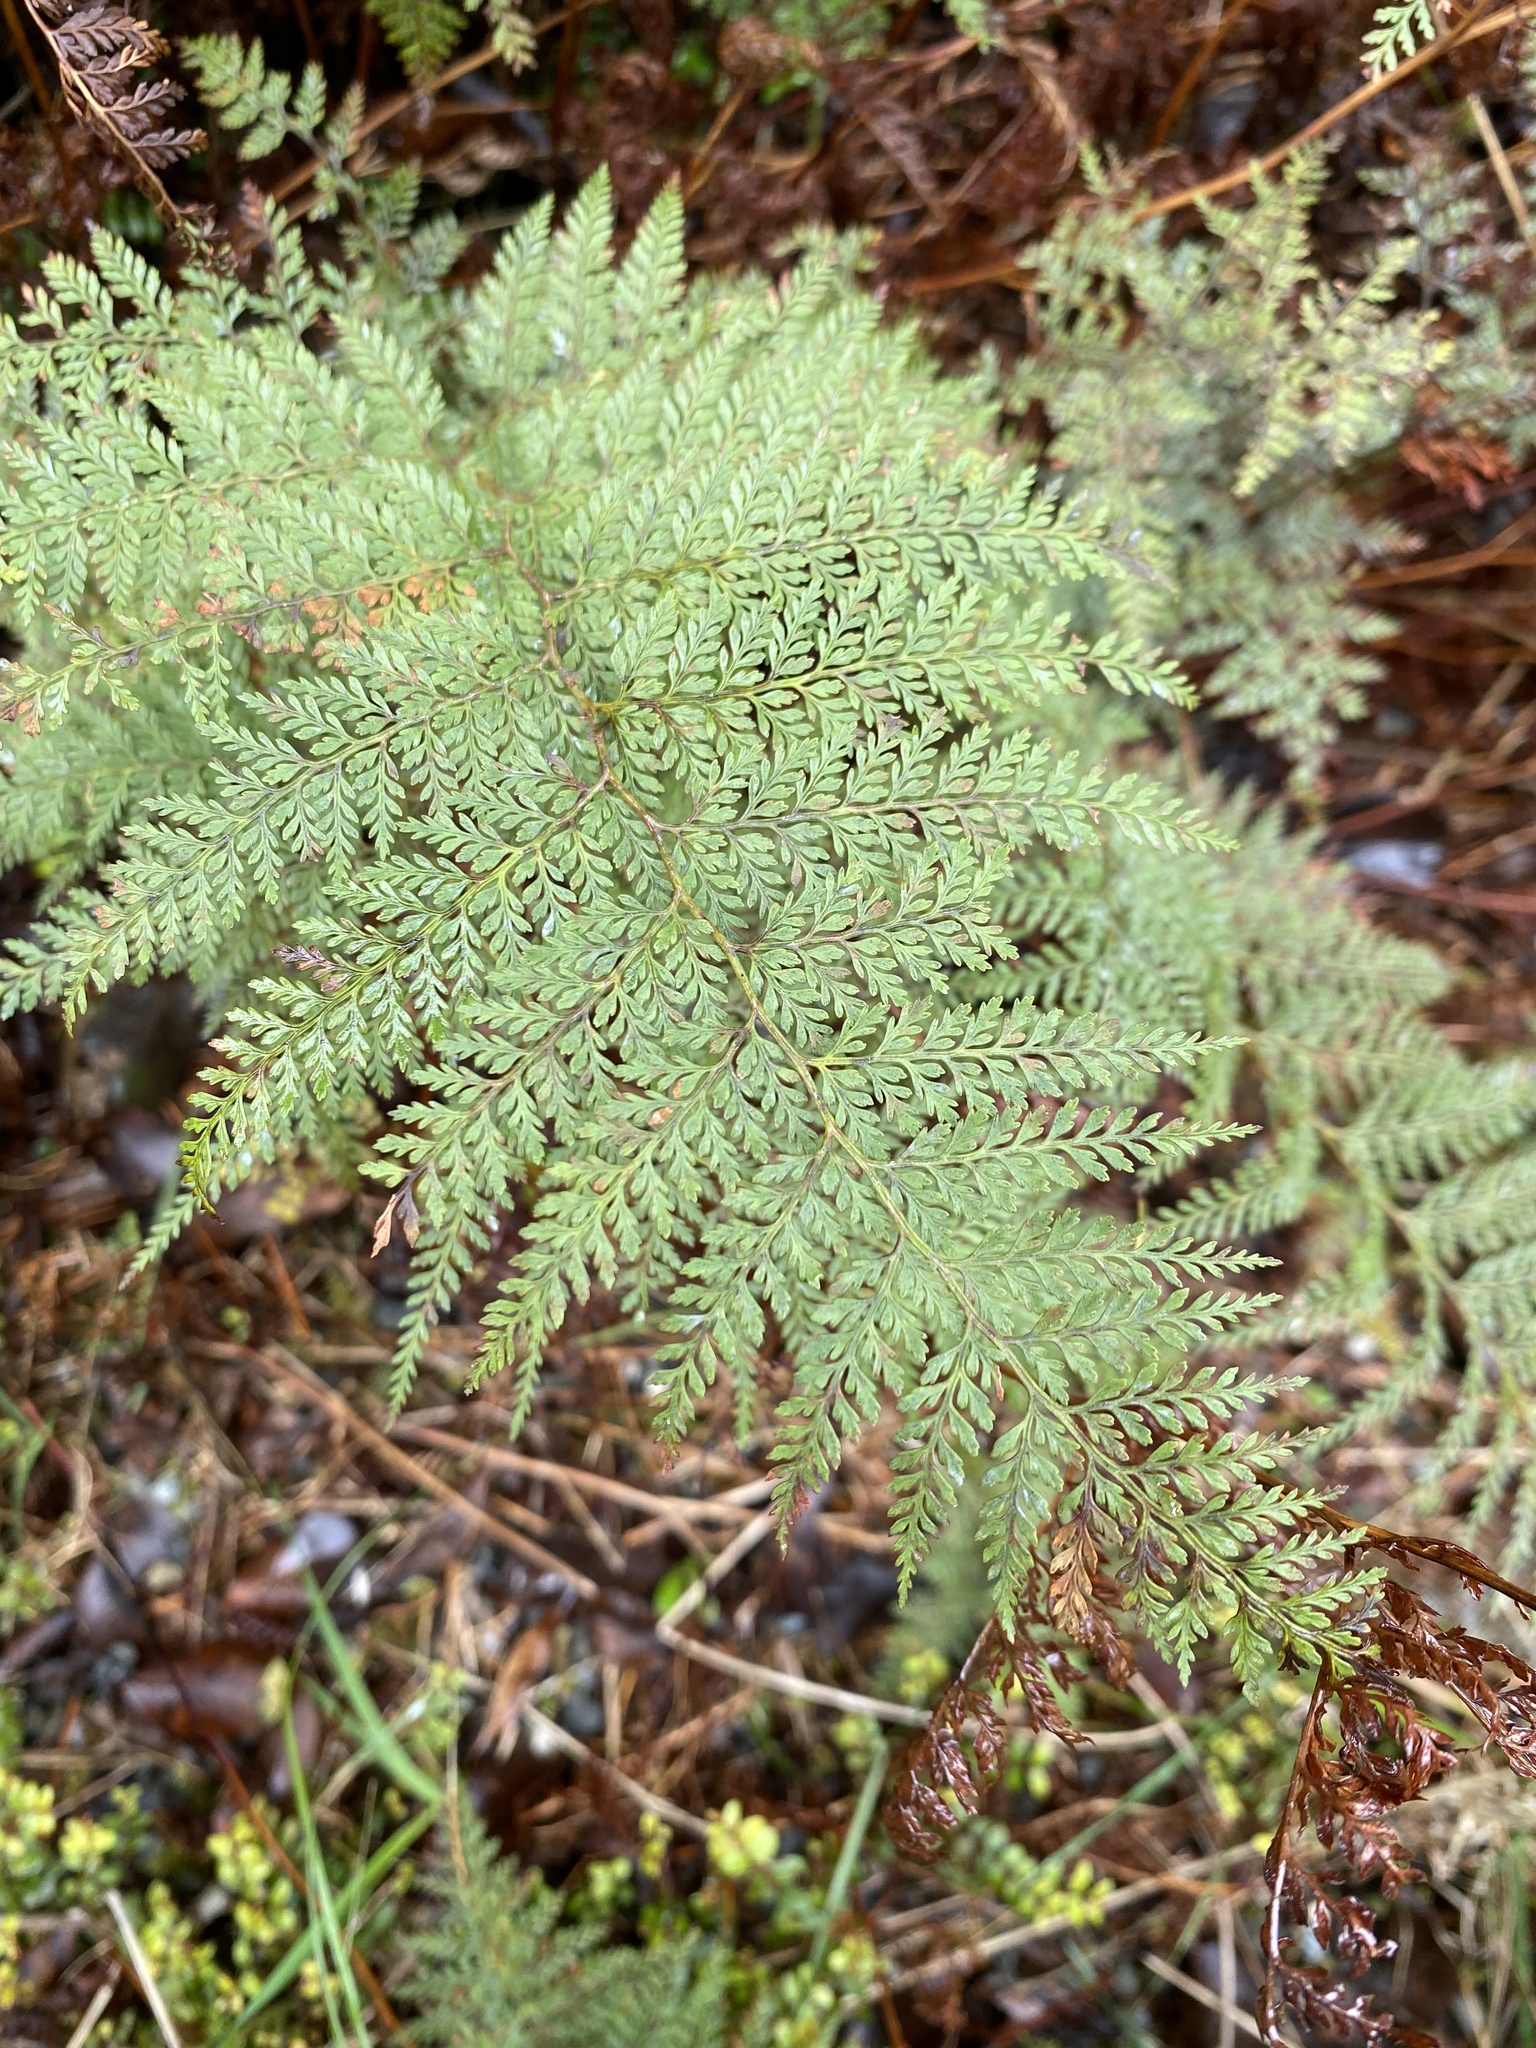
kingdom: Plantae
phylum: Tracheophyta
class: Polypodiopsida
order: Polypodiales
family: Dennstaedtiaceae
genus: Paesia
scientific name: Paesia scaberula
